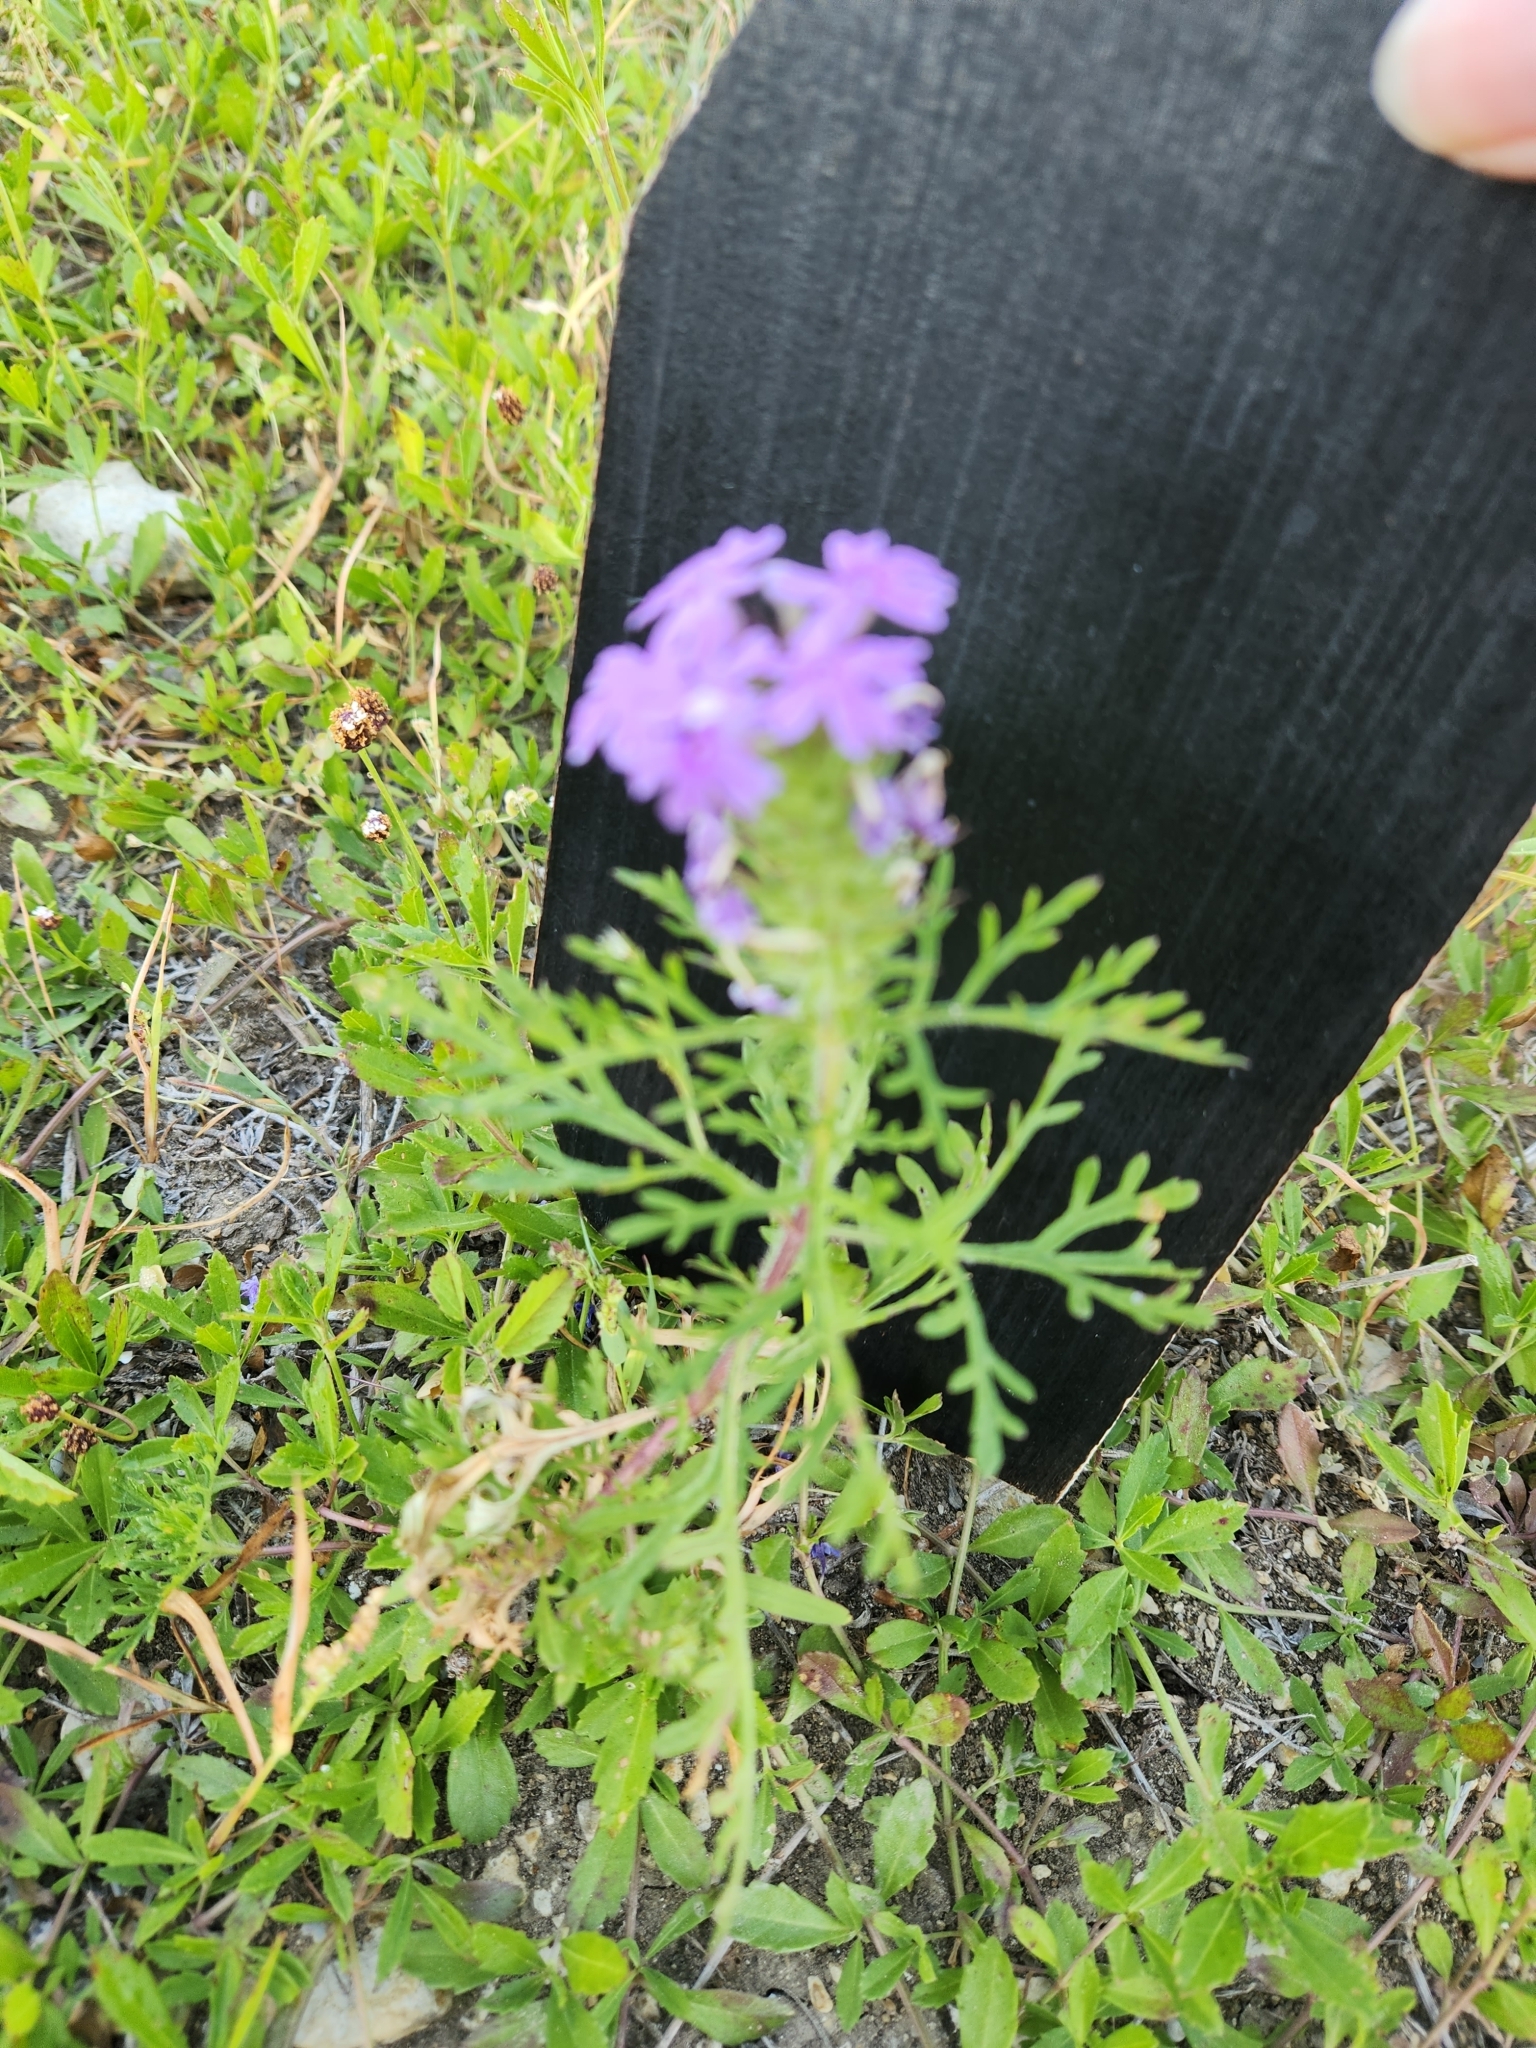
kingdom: Plantae
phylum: Tracheophyta
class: Magnoliopsida
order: Lamiales
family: Verbenaceae
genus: Verbena
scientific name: Verbena bipinnatifida
